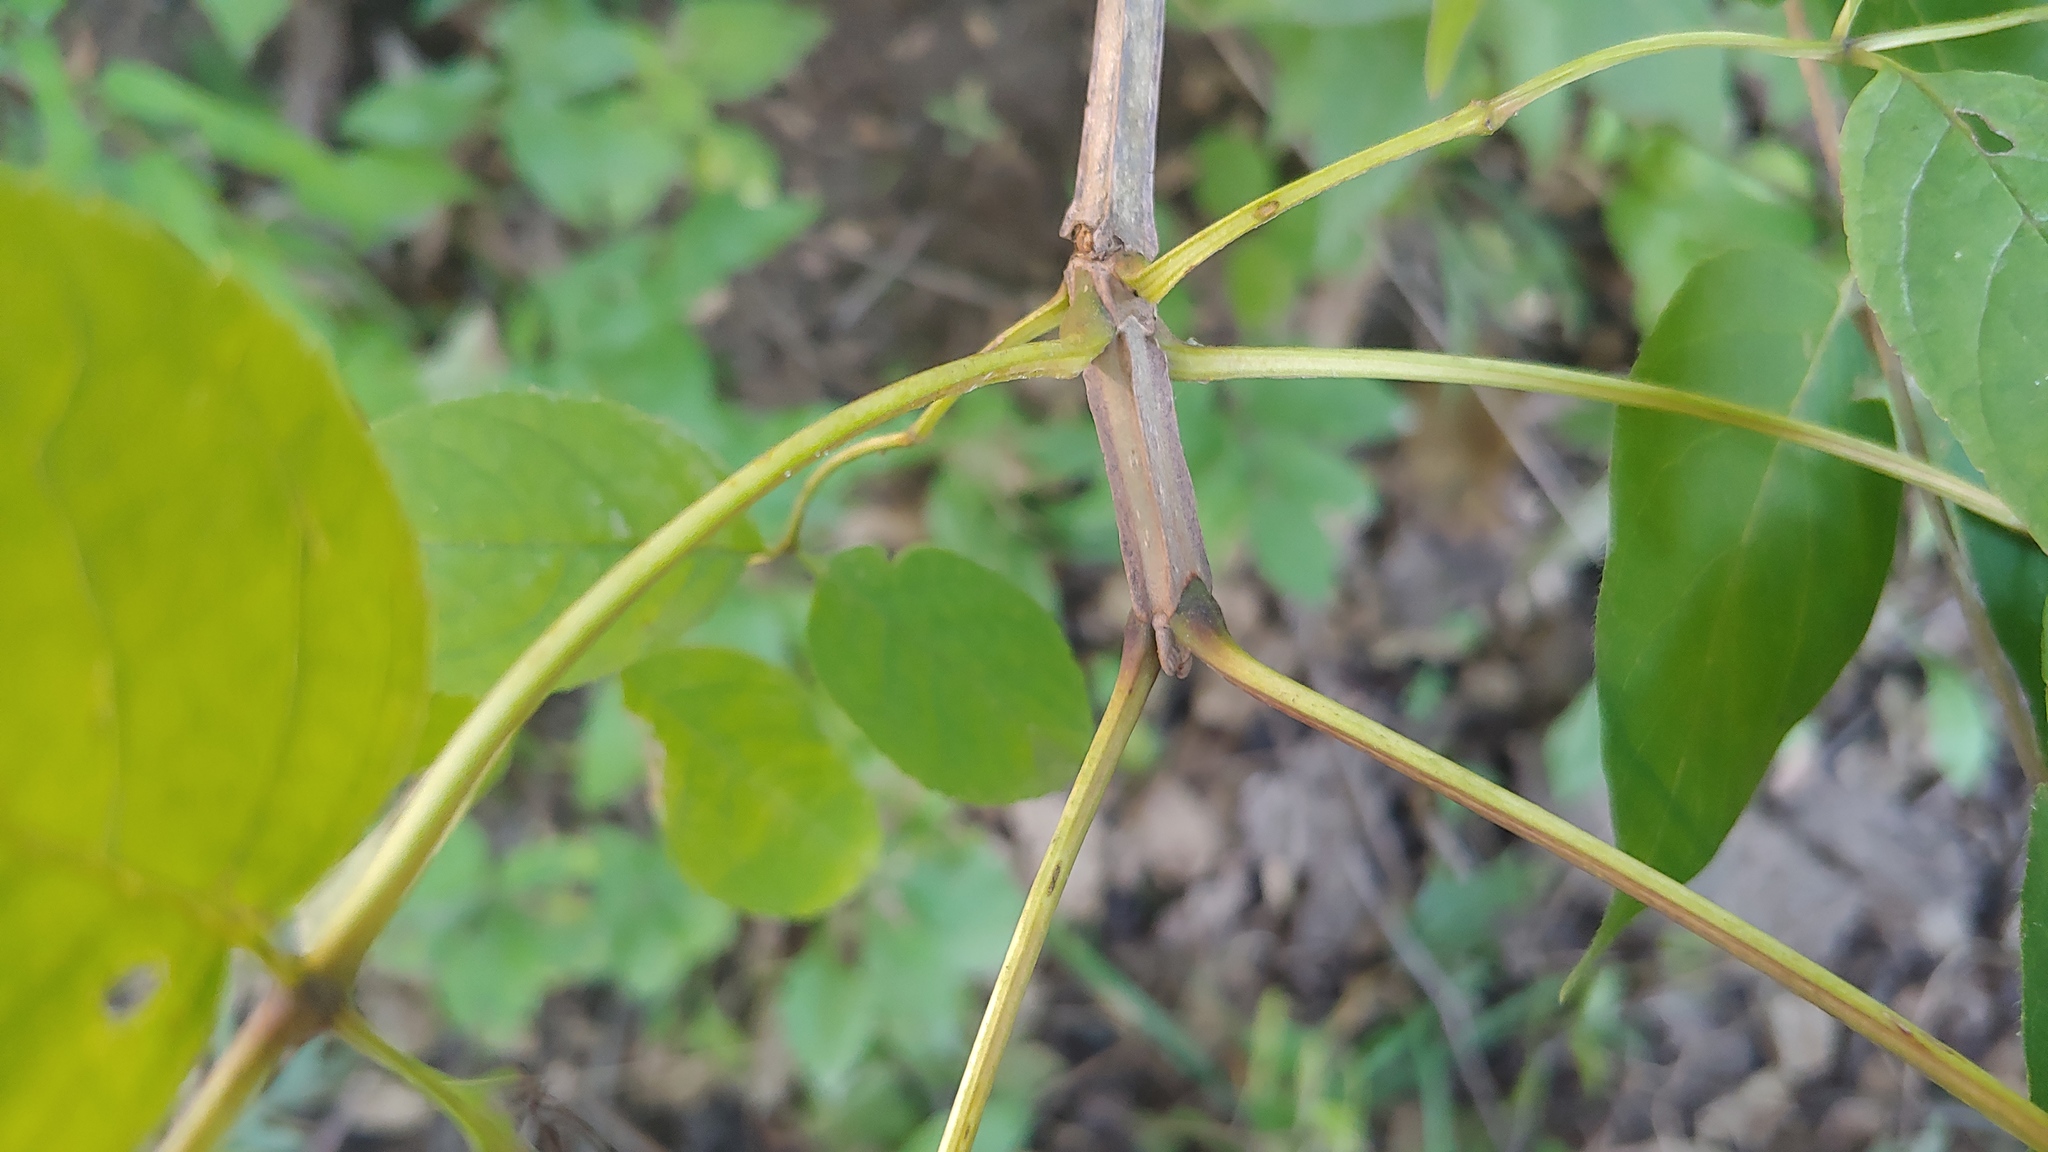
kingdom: Plantae
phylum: Tracheophyta
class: Magnoliopsida
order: Lamiales
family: Oleaceae
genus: Fraxinus
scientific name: Fraxinus quadrangulata
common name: Blue ash
